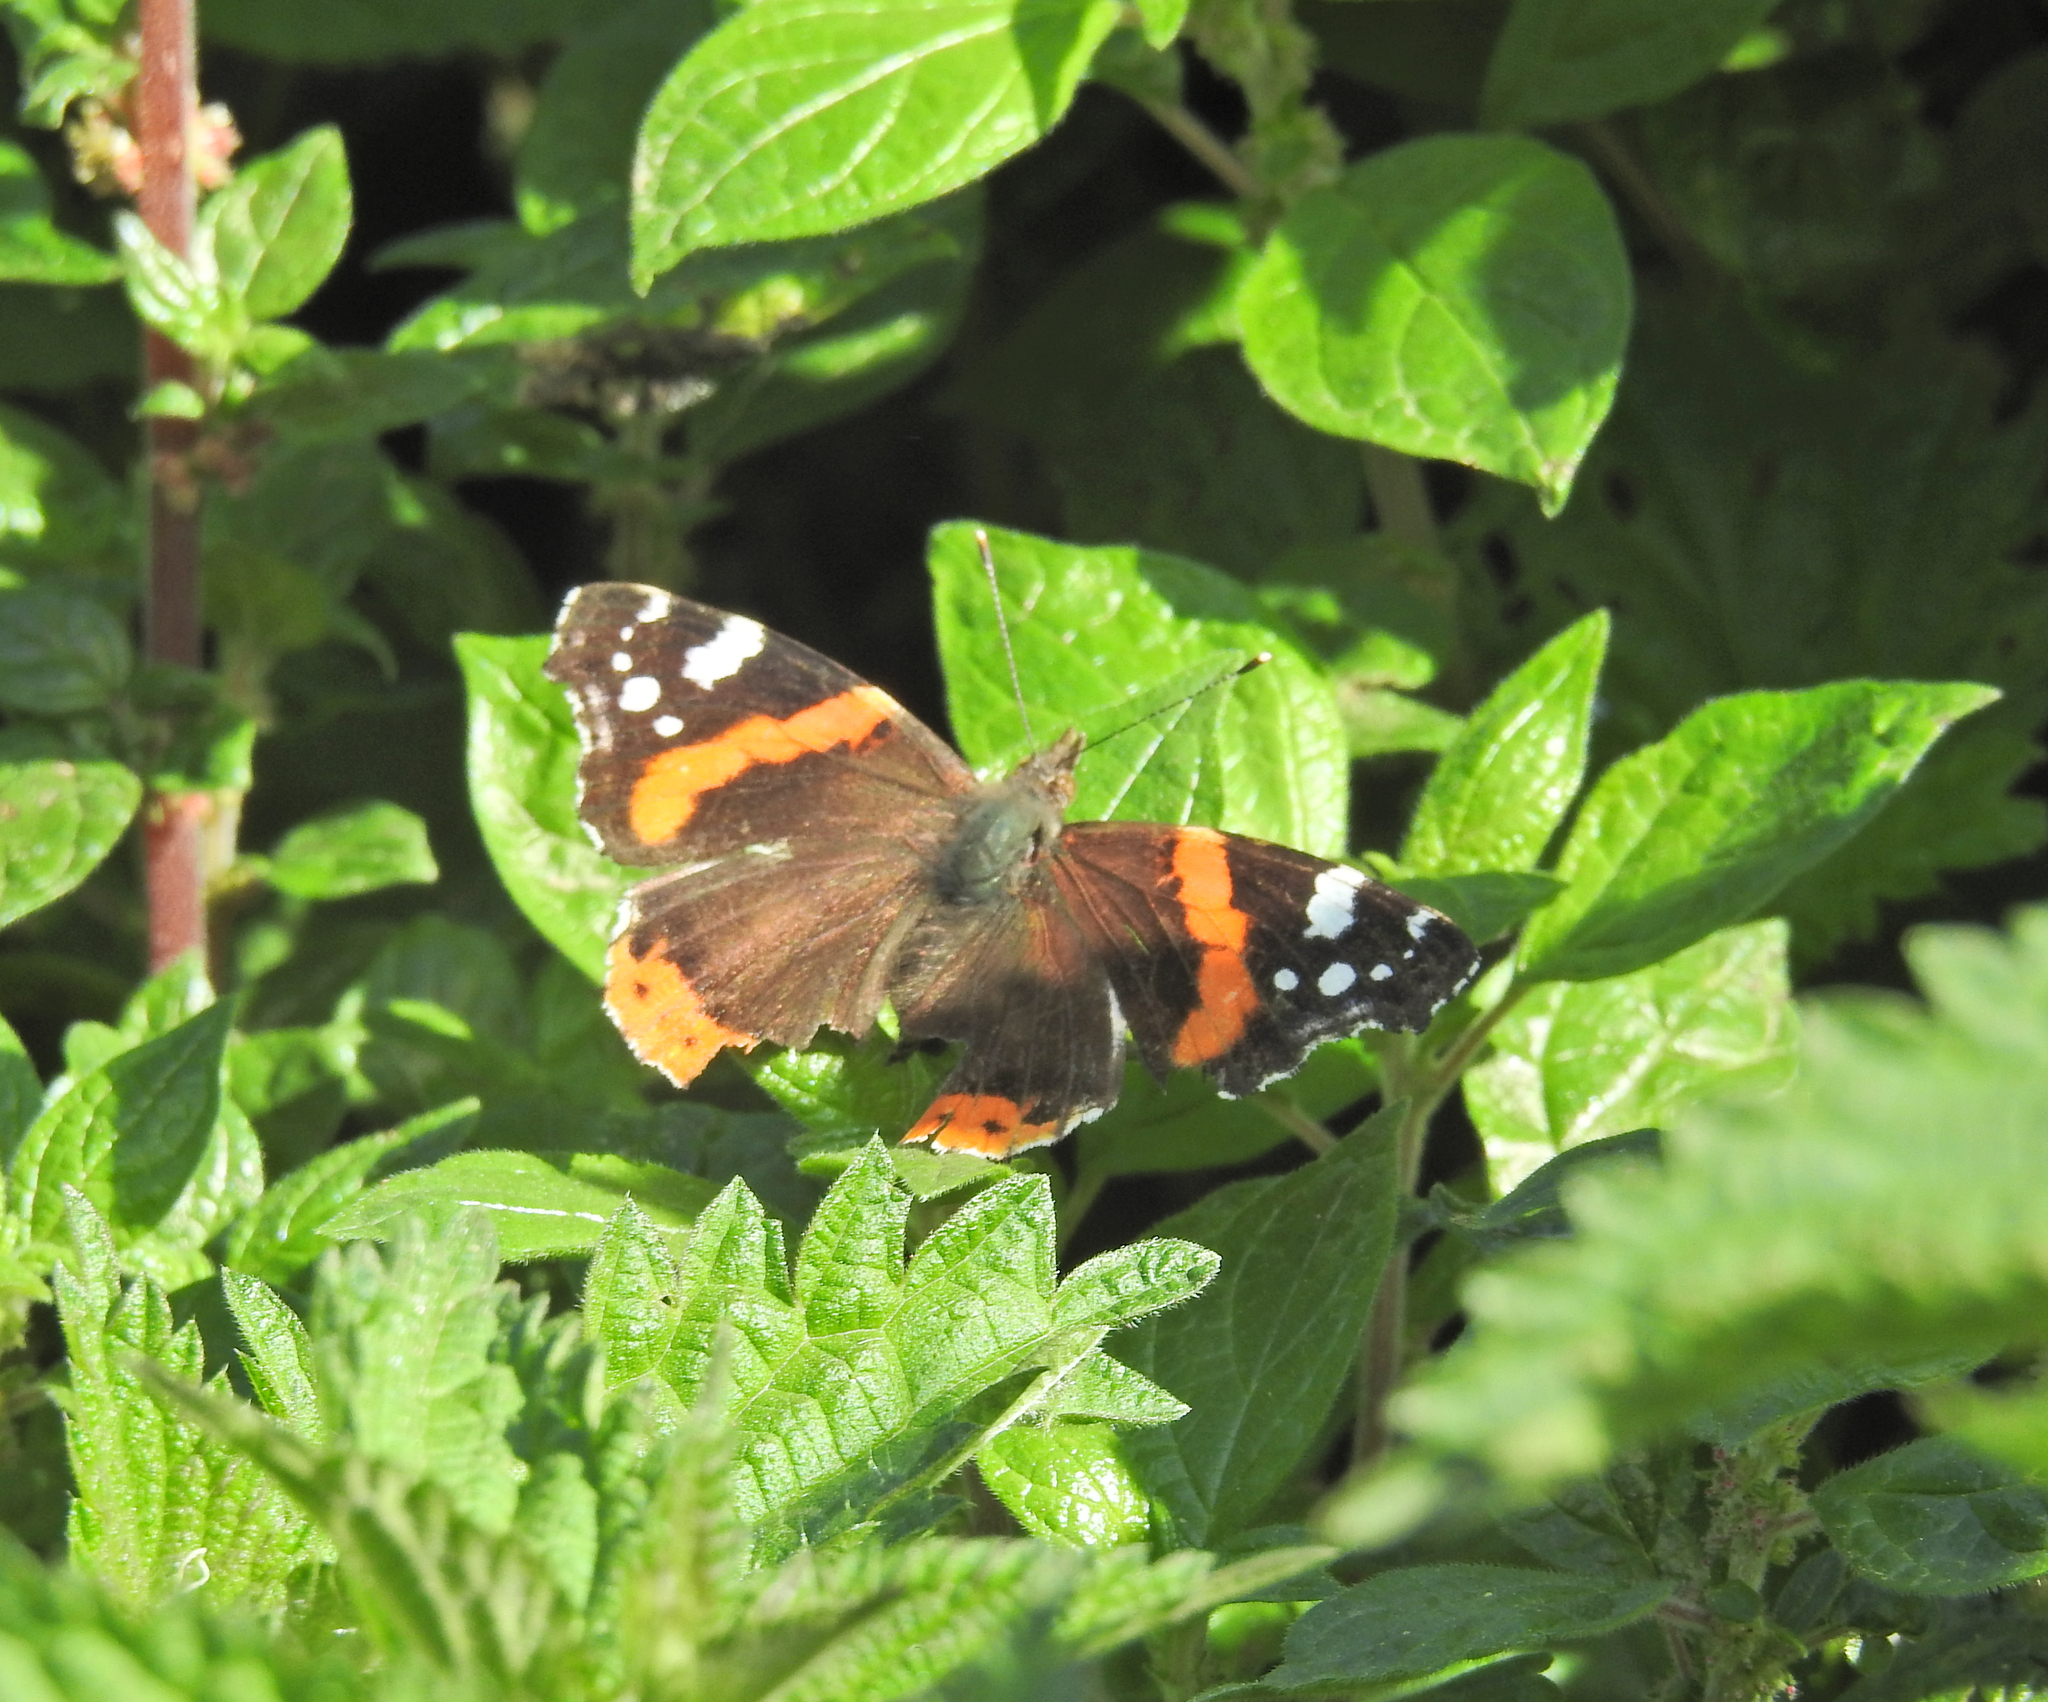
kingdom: Animalia
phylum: Arthropoda
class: Insecta
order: Lepidoptera
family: Nymphalidae
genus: Vanessa
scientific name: Vanessa atalanta
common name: Red admiral
